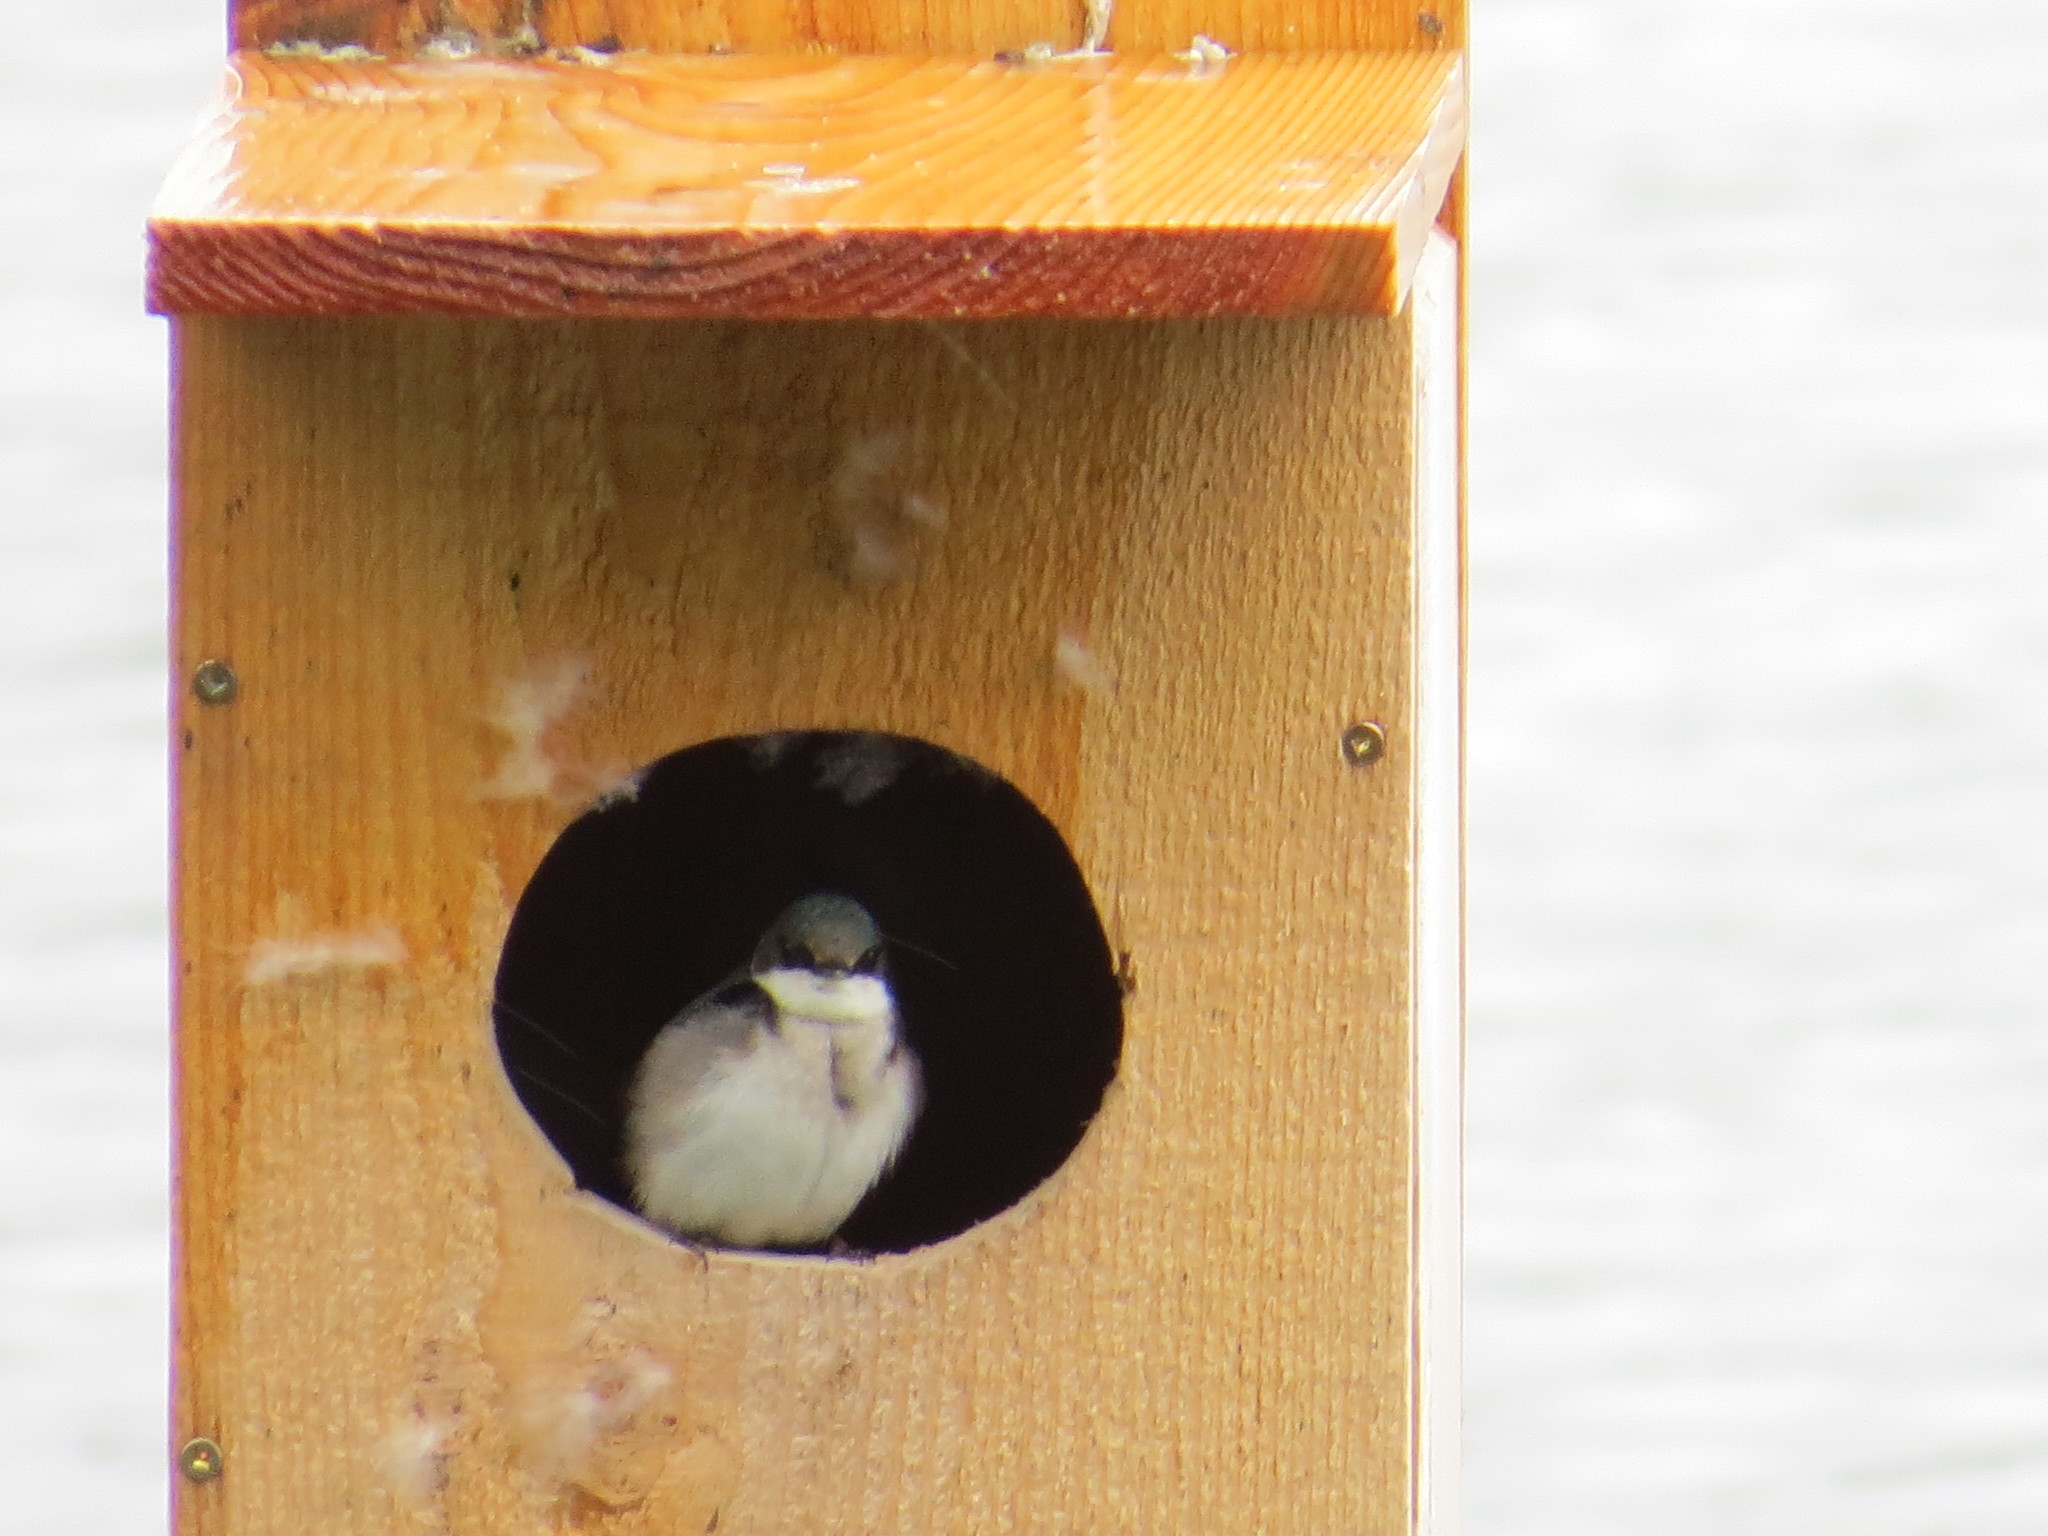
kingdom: Animalia
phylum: Chordata
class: Aves
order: Passeriformes
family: Hirundinidae
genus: Tachycineta
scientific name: Tachycineta bicolor
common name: Tree swallow
